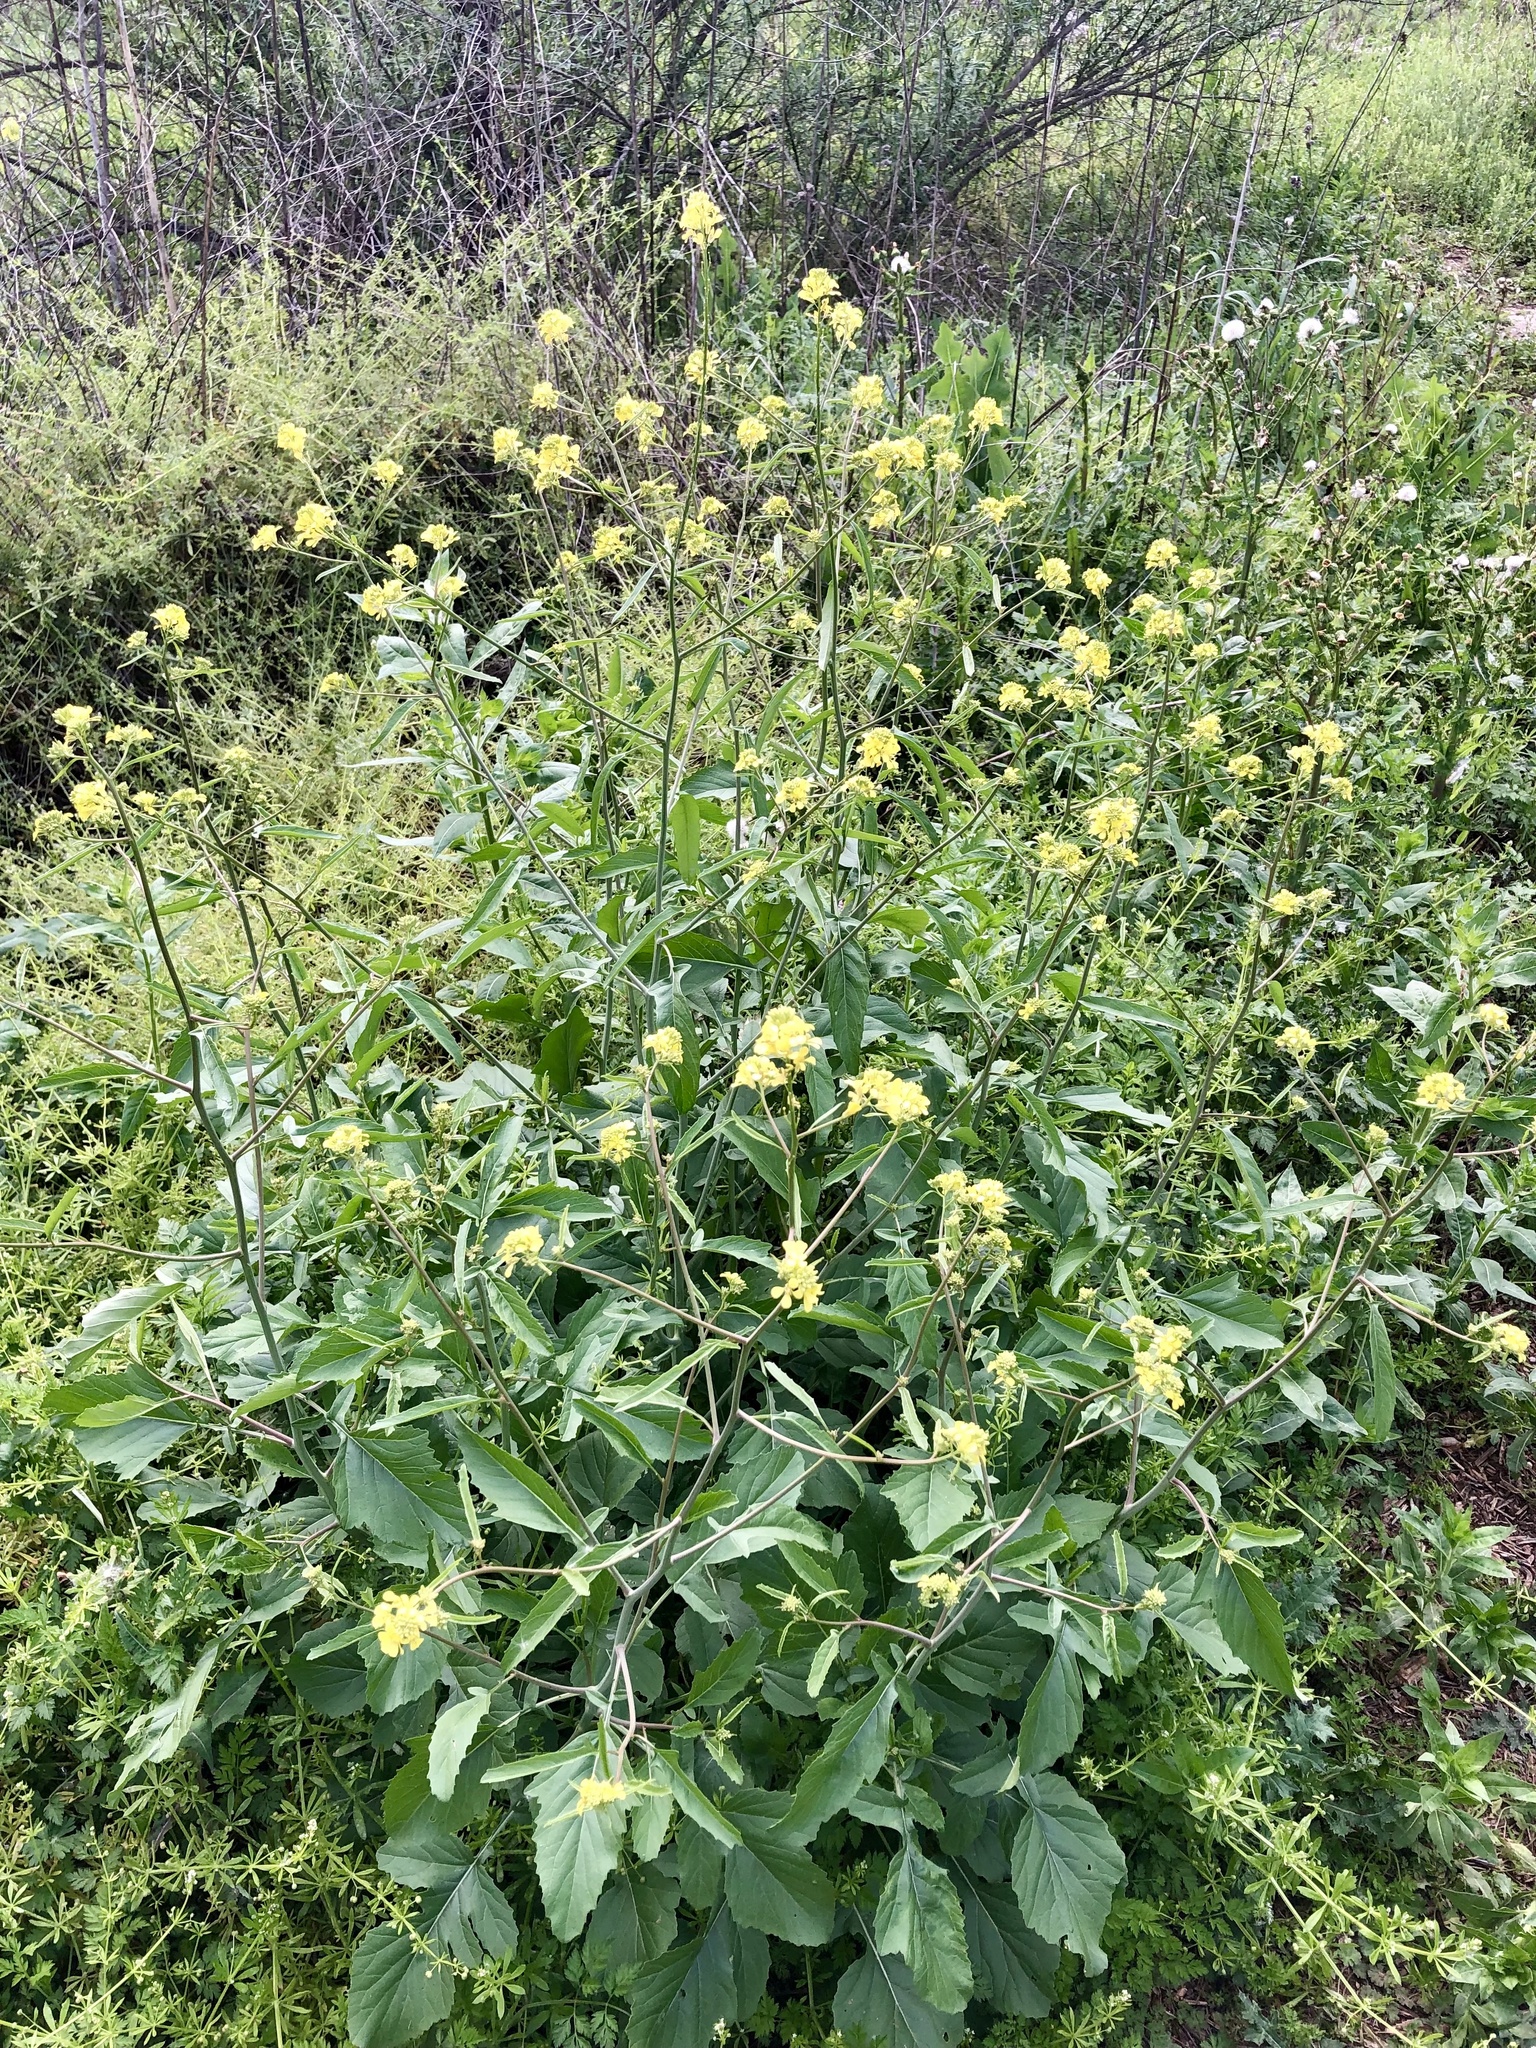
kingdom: Plantae
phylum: Tracheophyta
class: Magnoliopsida
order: Brassicales
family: Brassicaceae
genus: Rapistrum
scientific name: Rapistrum rugosum
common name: Annual bastardcabbage
